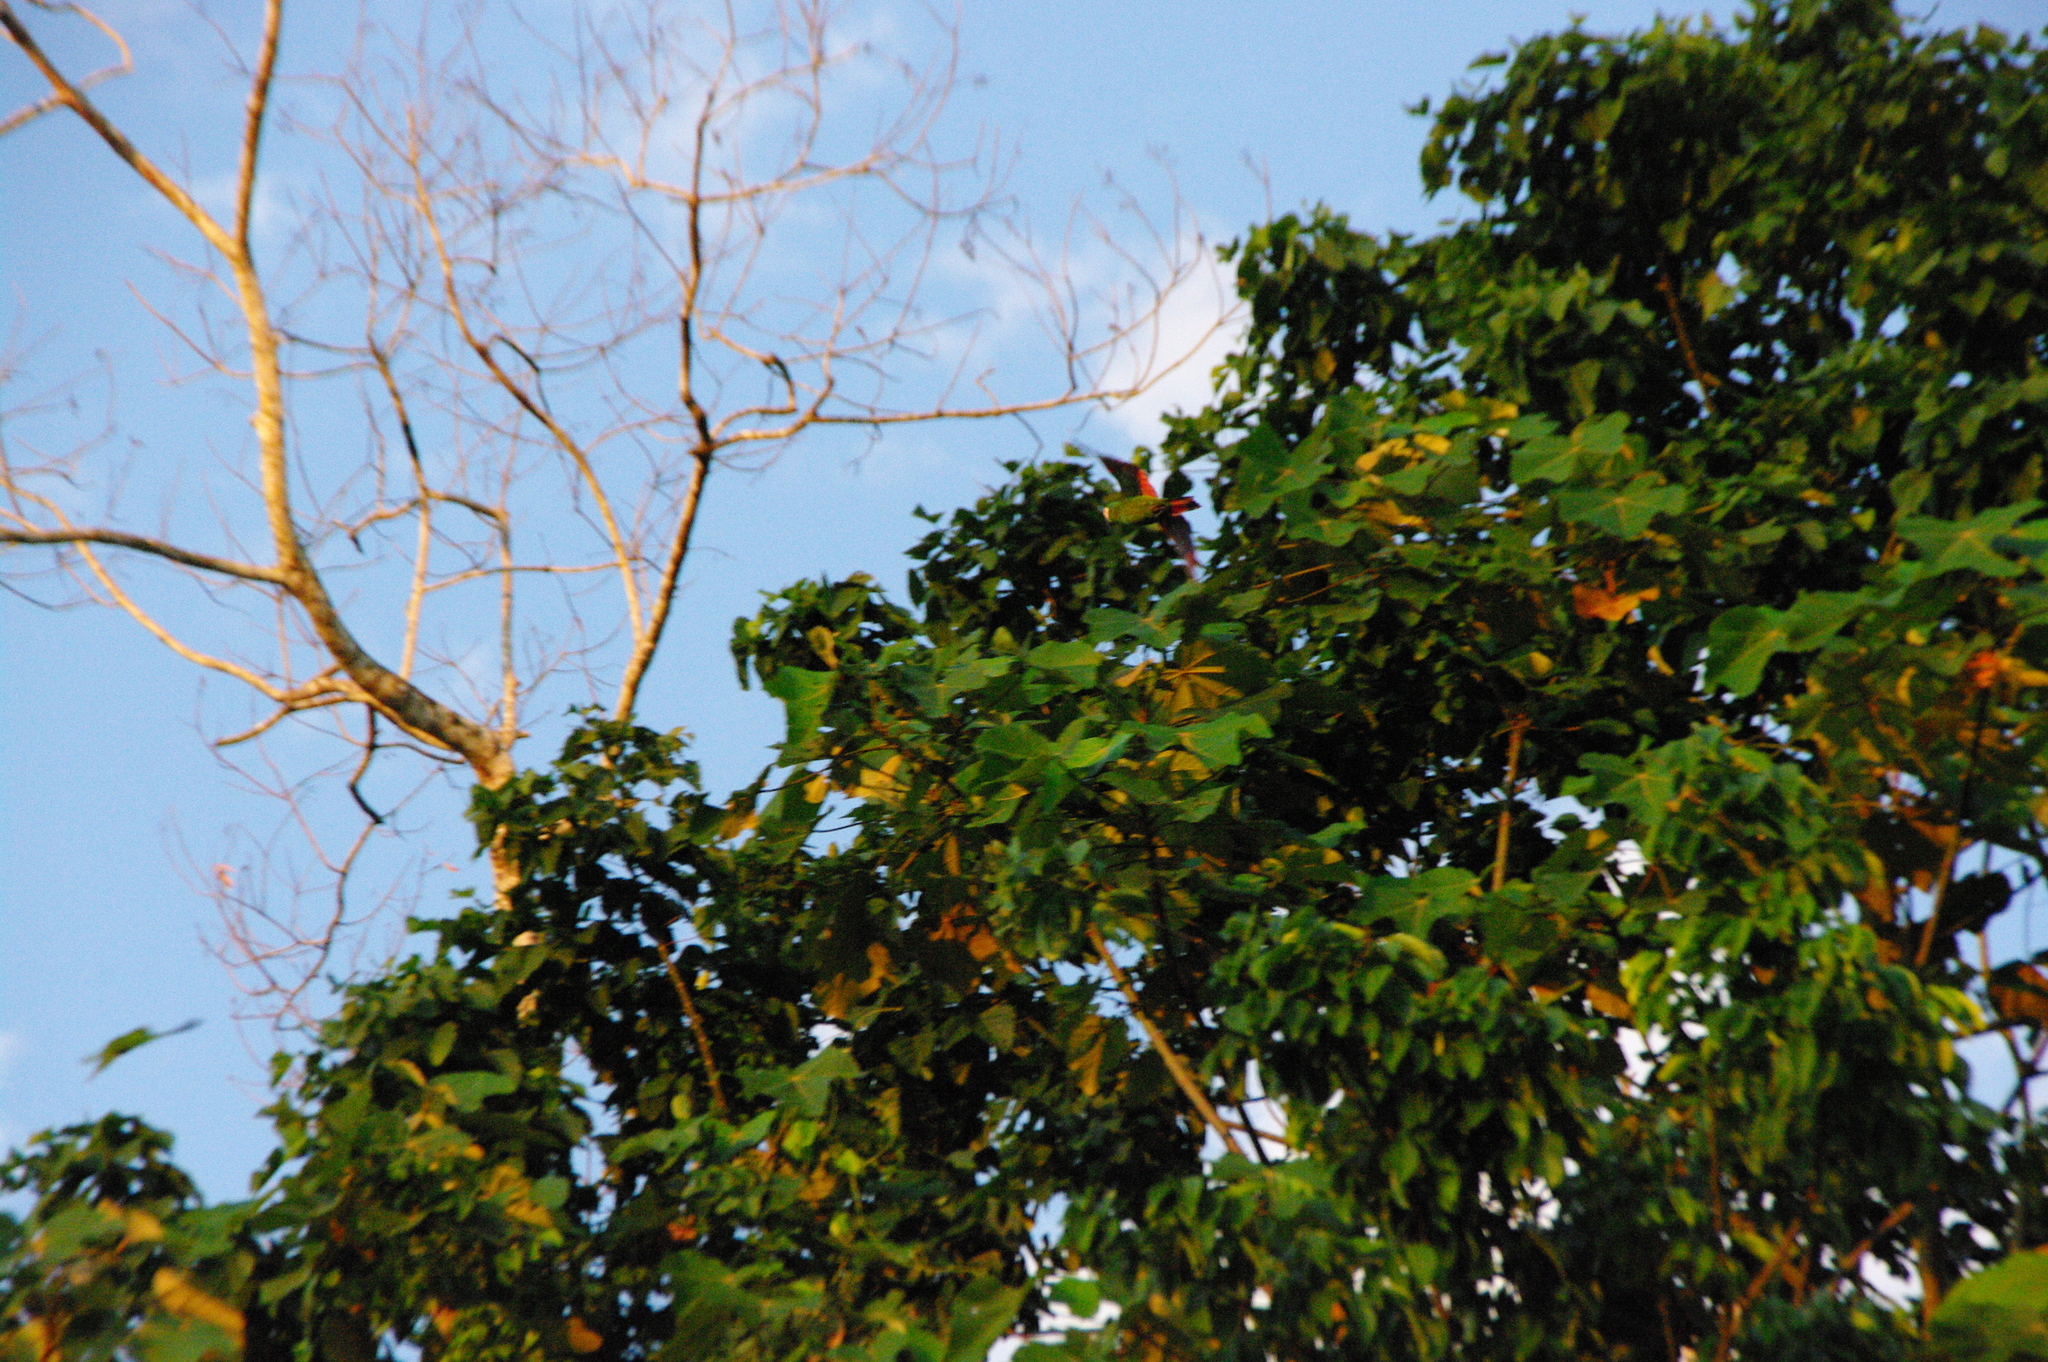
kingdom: Animalia
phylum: Chordata
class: Aves
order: Psittaciformes
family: Psittacidae
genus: Ara
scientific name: Ara severus
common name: Chestnut-fronted macaw
